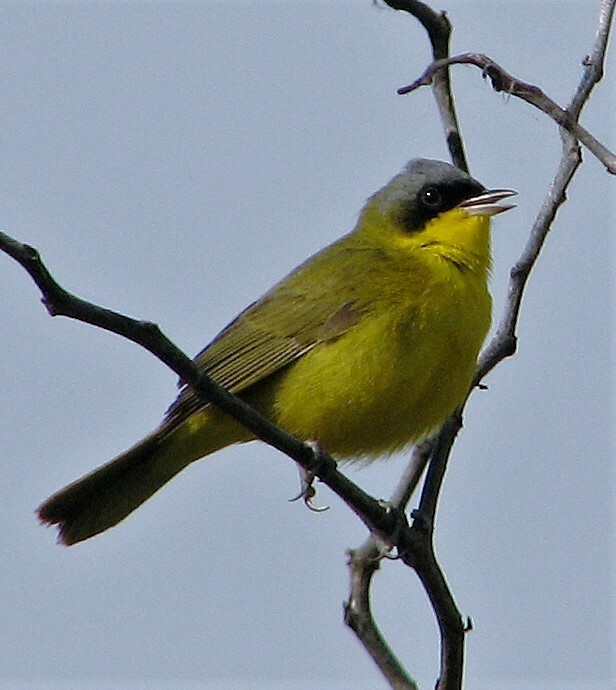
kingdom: Animalia
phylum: Chordata
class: Aves
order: Passeriformes
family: Parulidae
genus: Geothlypis
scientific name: Geothlypis velata
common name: Southern yellowthroat
